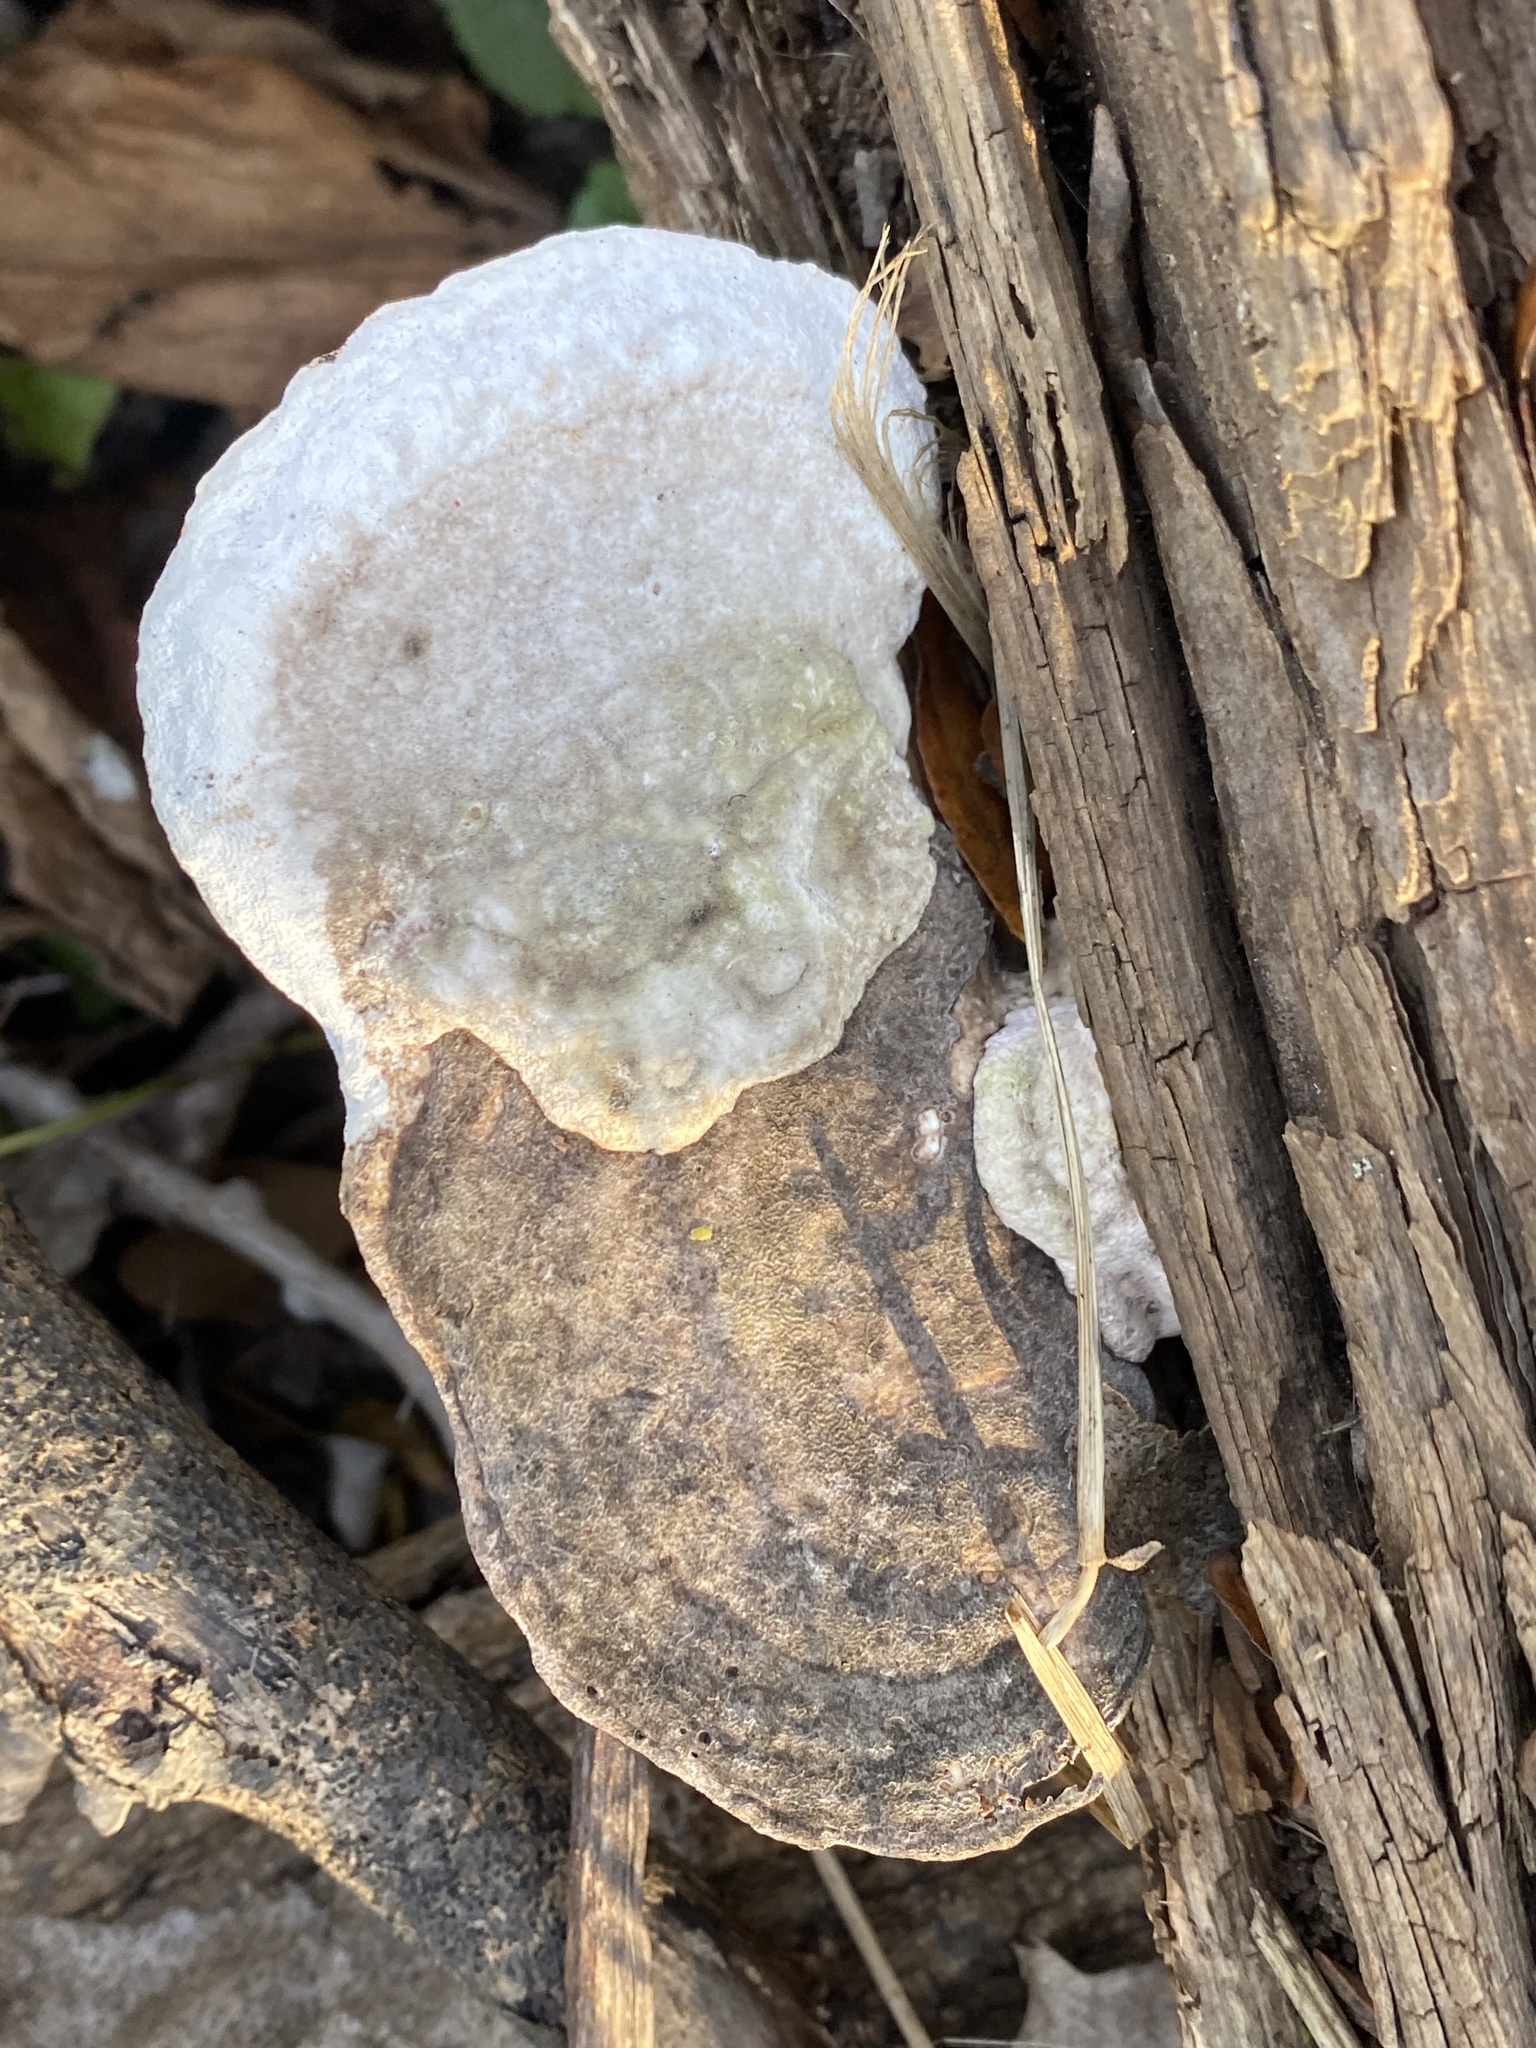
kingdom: Fungi
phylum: Basidiomycota
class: Agaricomycetes
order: Polyporales
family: Polyporaceae
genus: Trametes
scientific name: Trametes gibbosa
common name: Lumpy bracket
